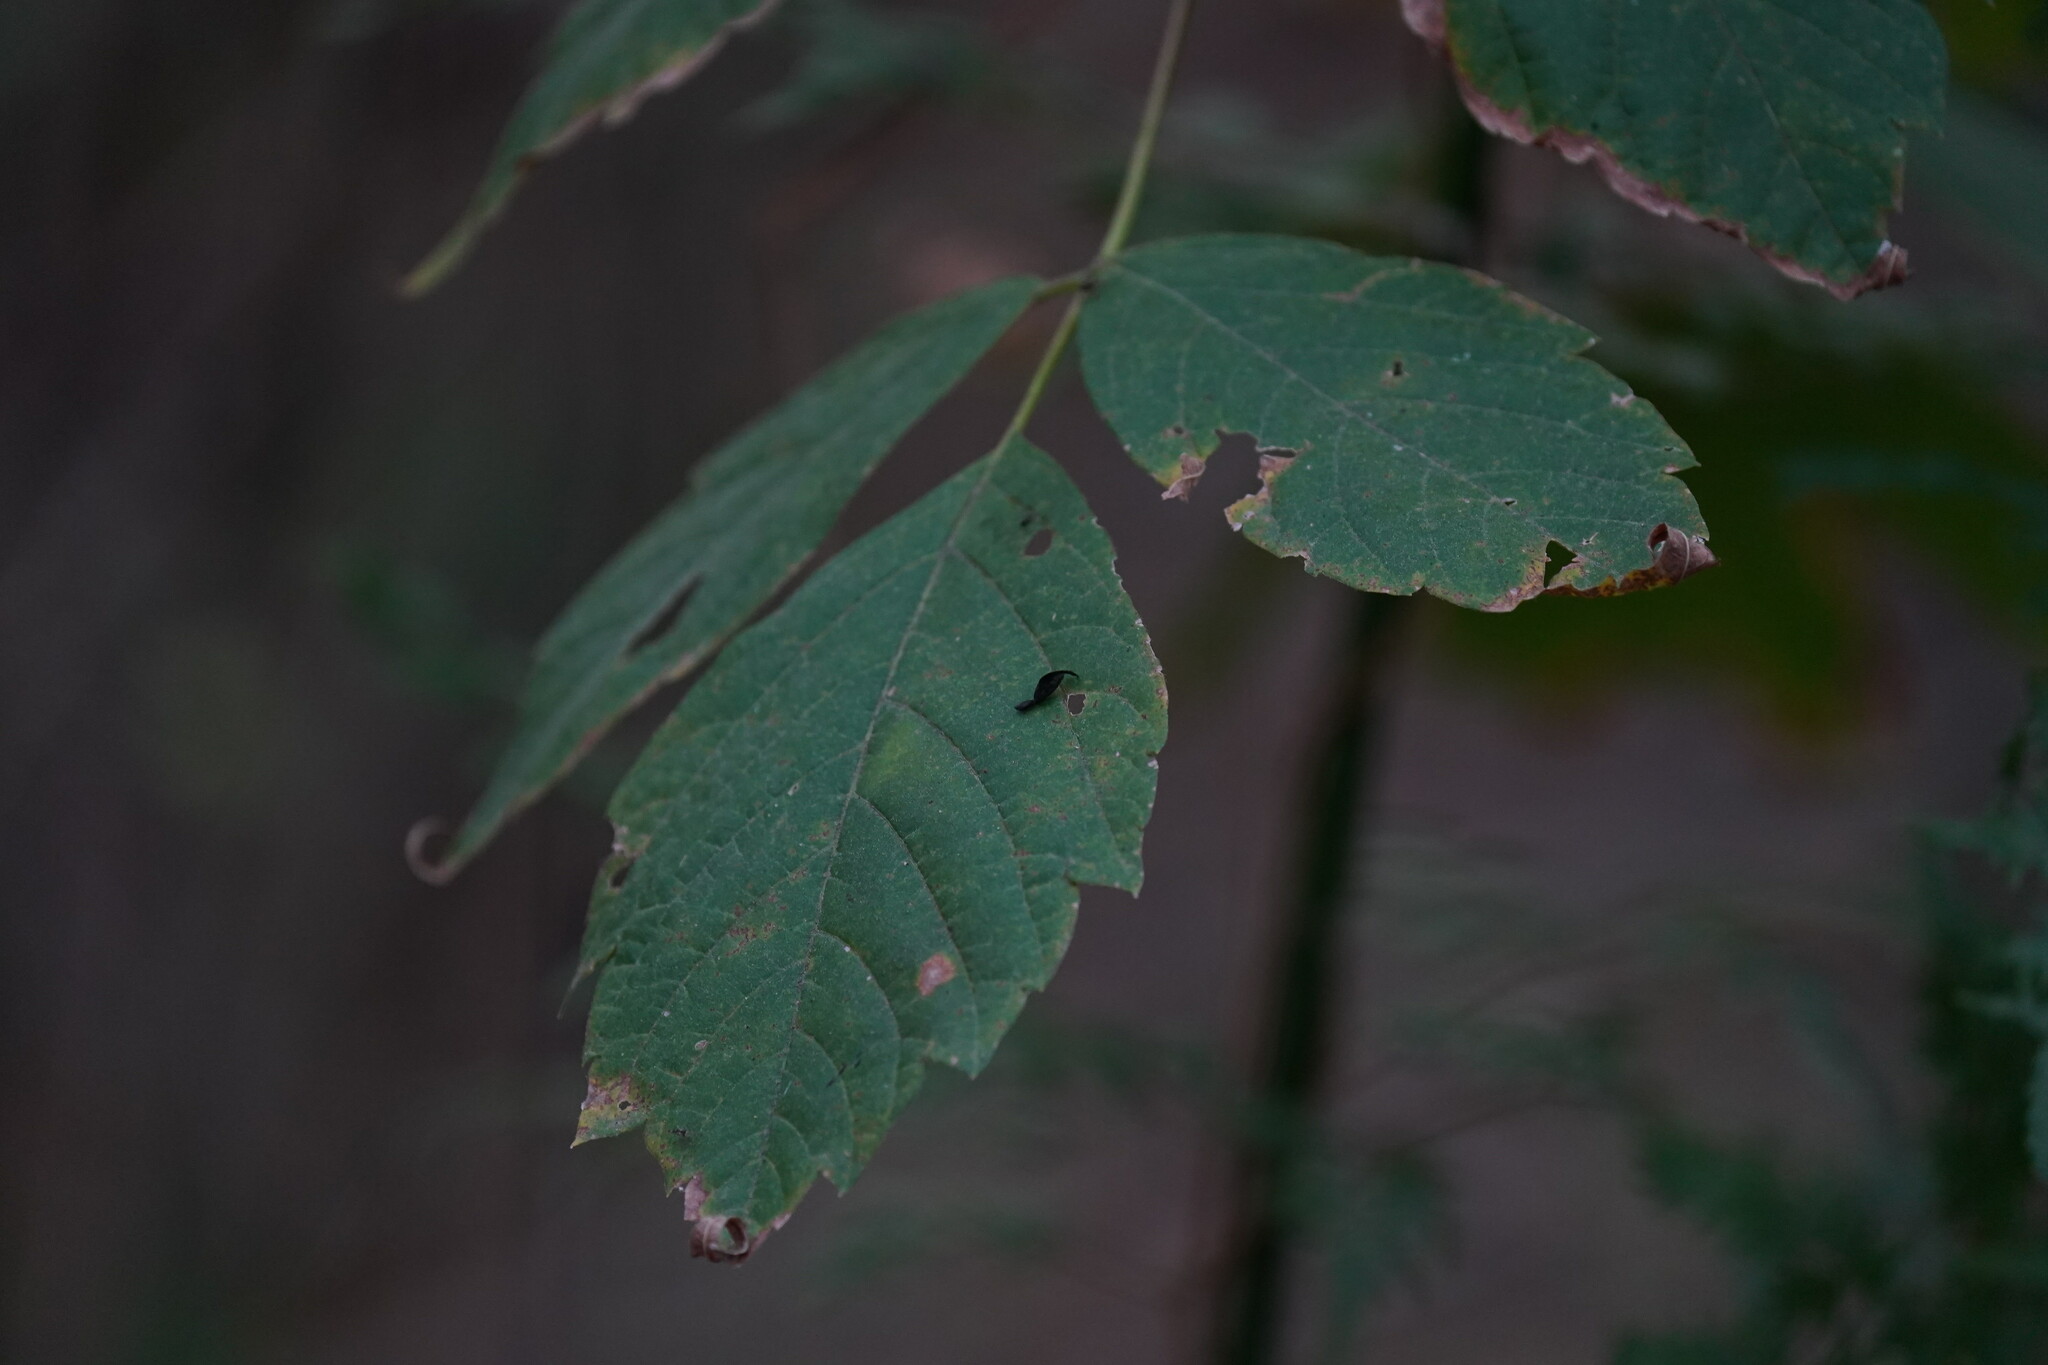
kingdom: Plantae
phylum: Tracheophyta
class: Magnoliopsida
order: Sapindales
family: Sapindaceae
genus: Acer
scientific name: Acer negundo
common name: Ashleaf maple
